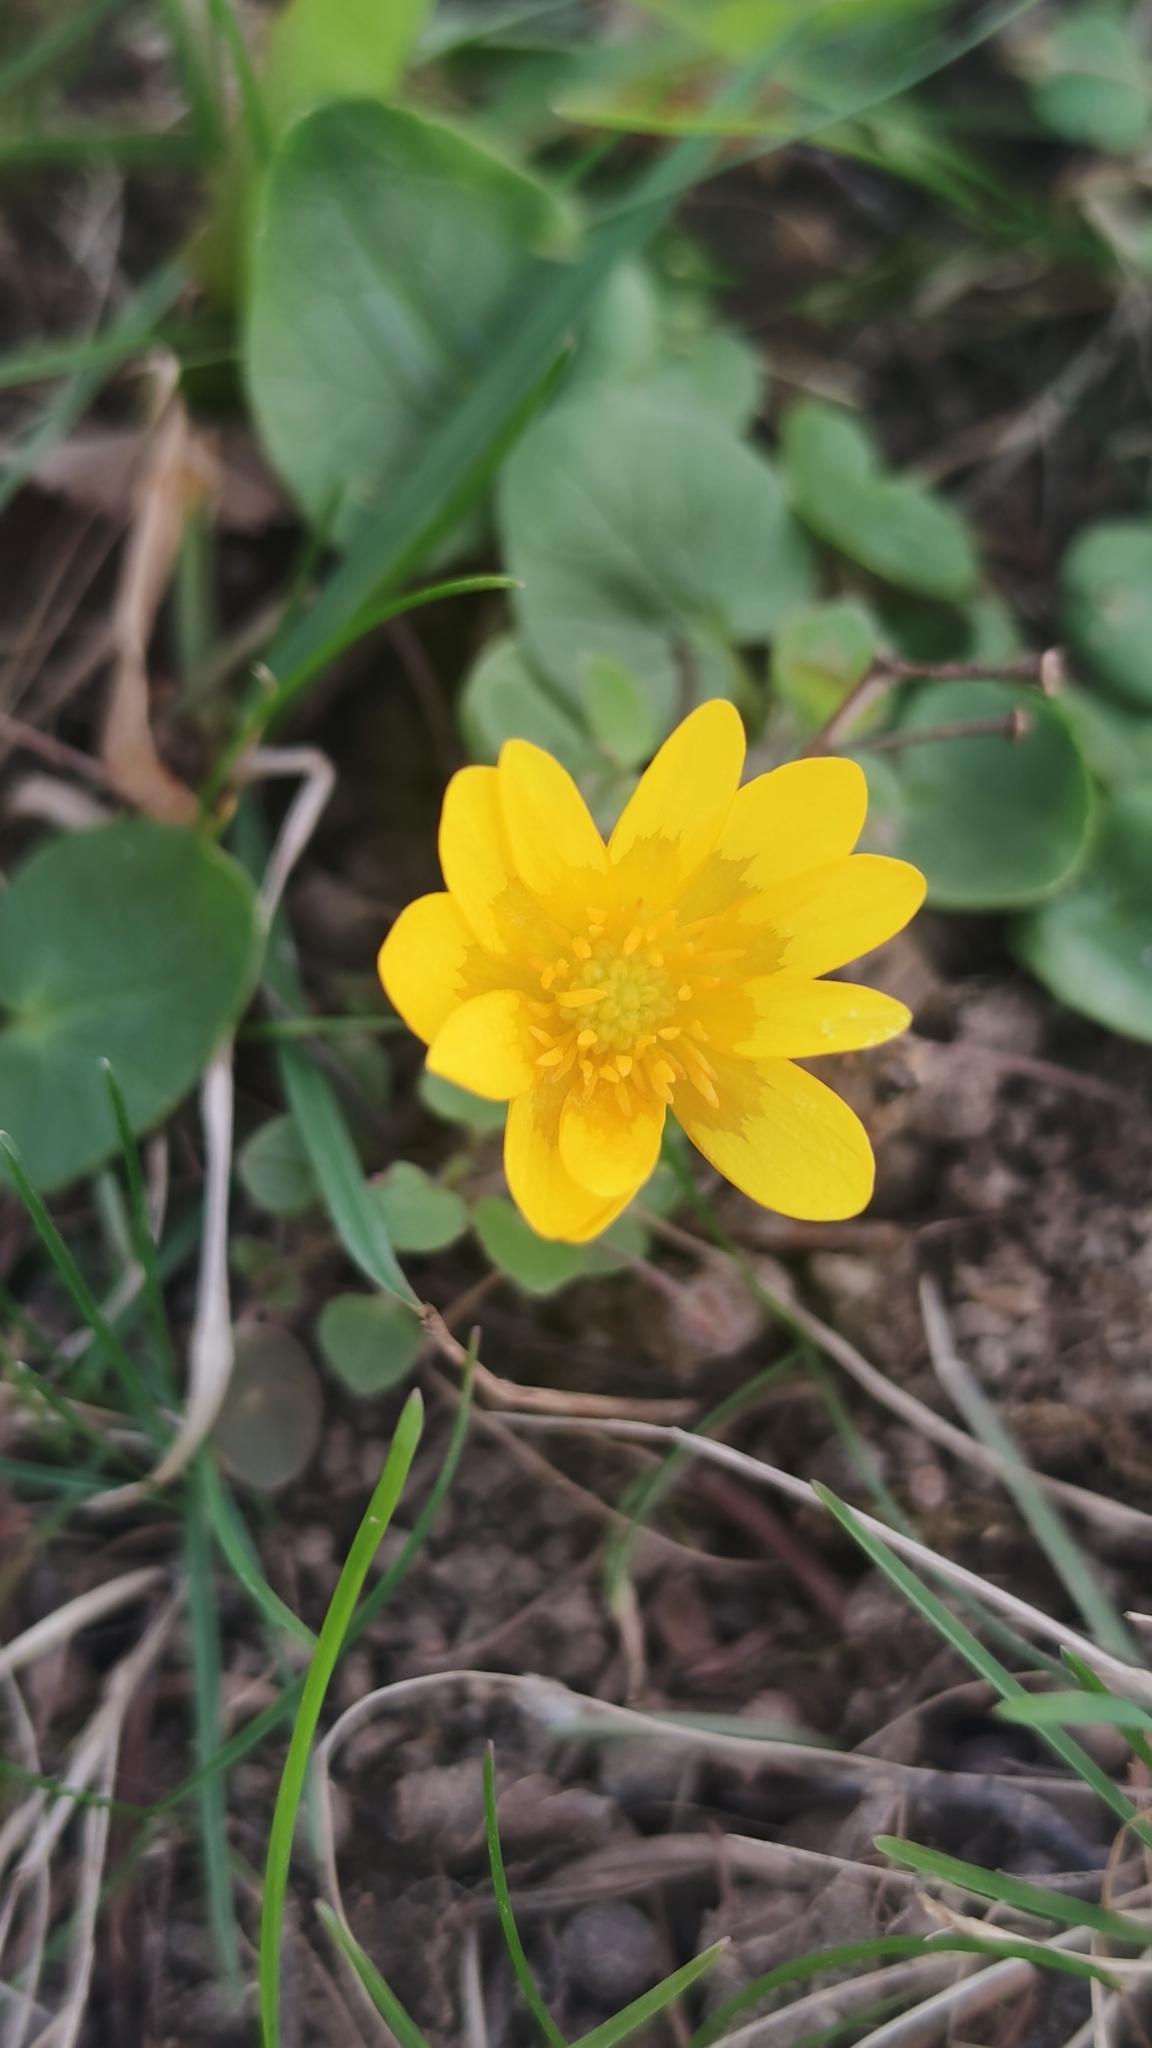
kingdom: Plantae
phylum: Tracheophyta
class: Magnoliopsida
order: Ranunculales
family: Ranunculaceae
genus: Ficaria
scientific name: Ficaria verna
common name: Lesser celandine
